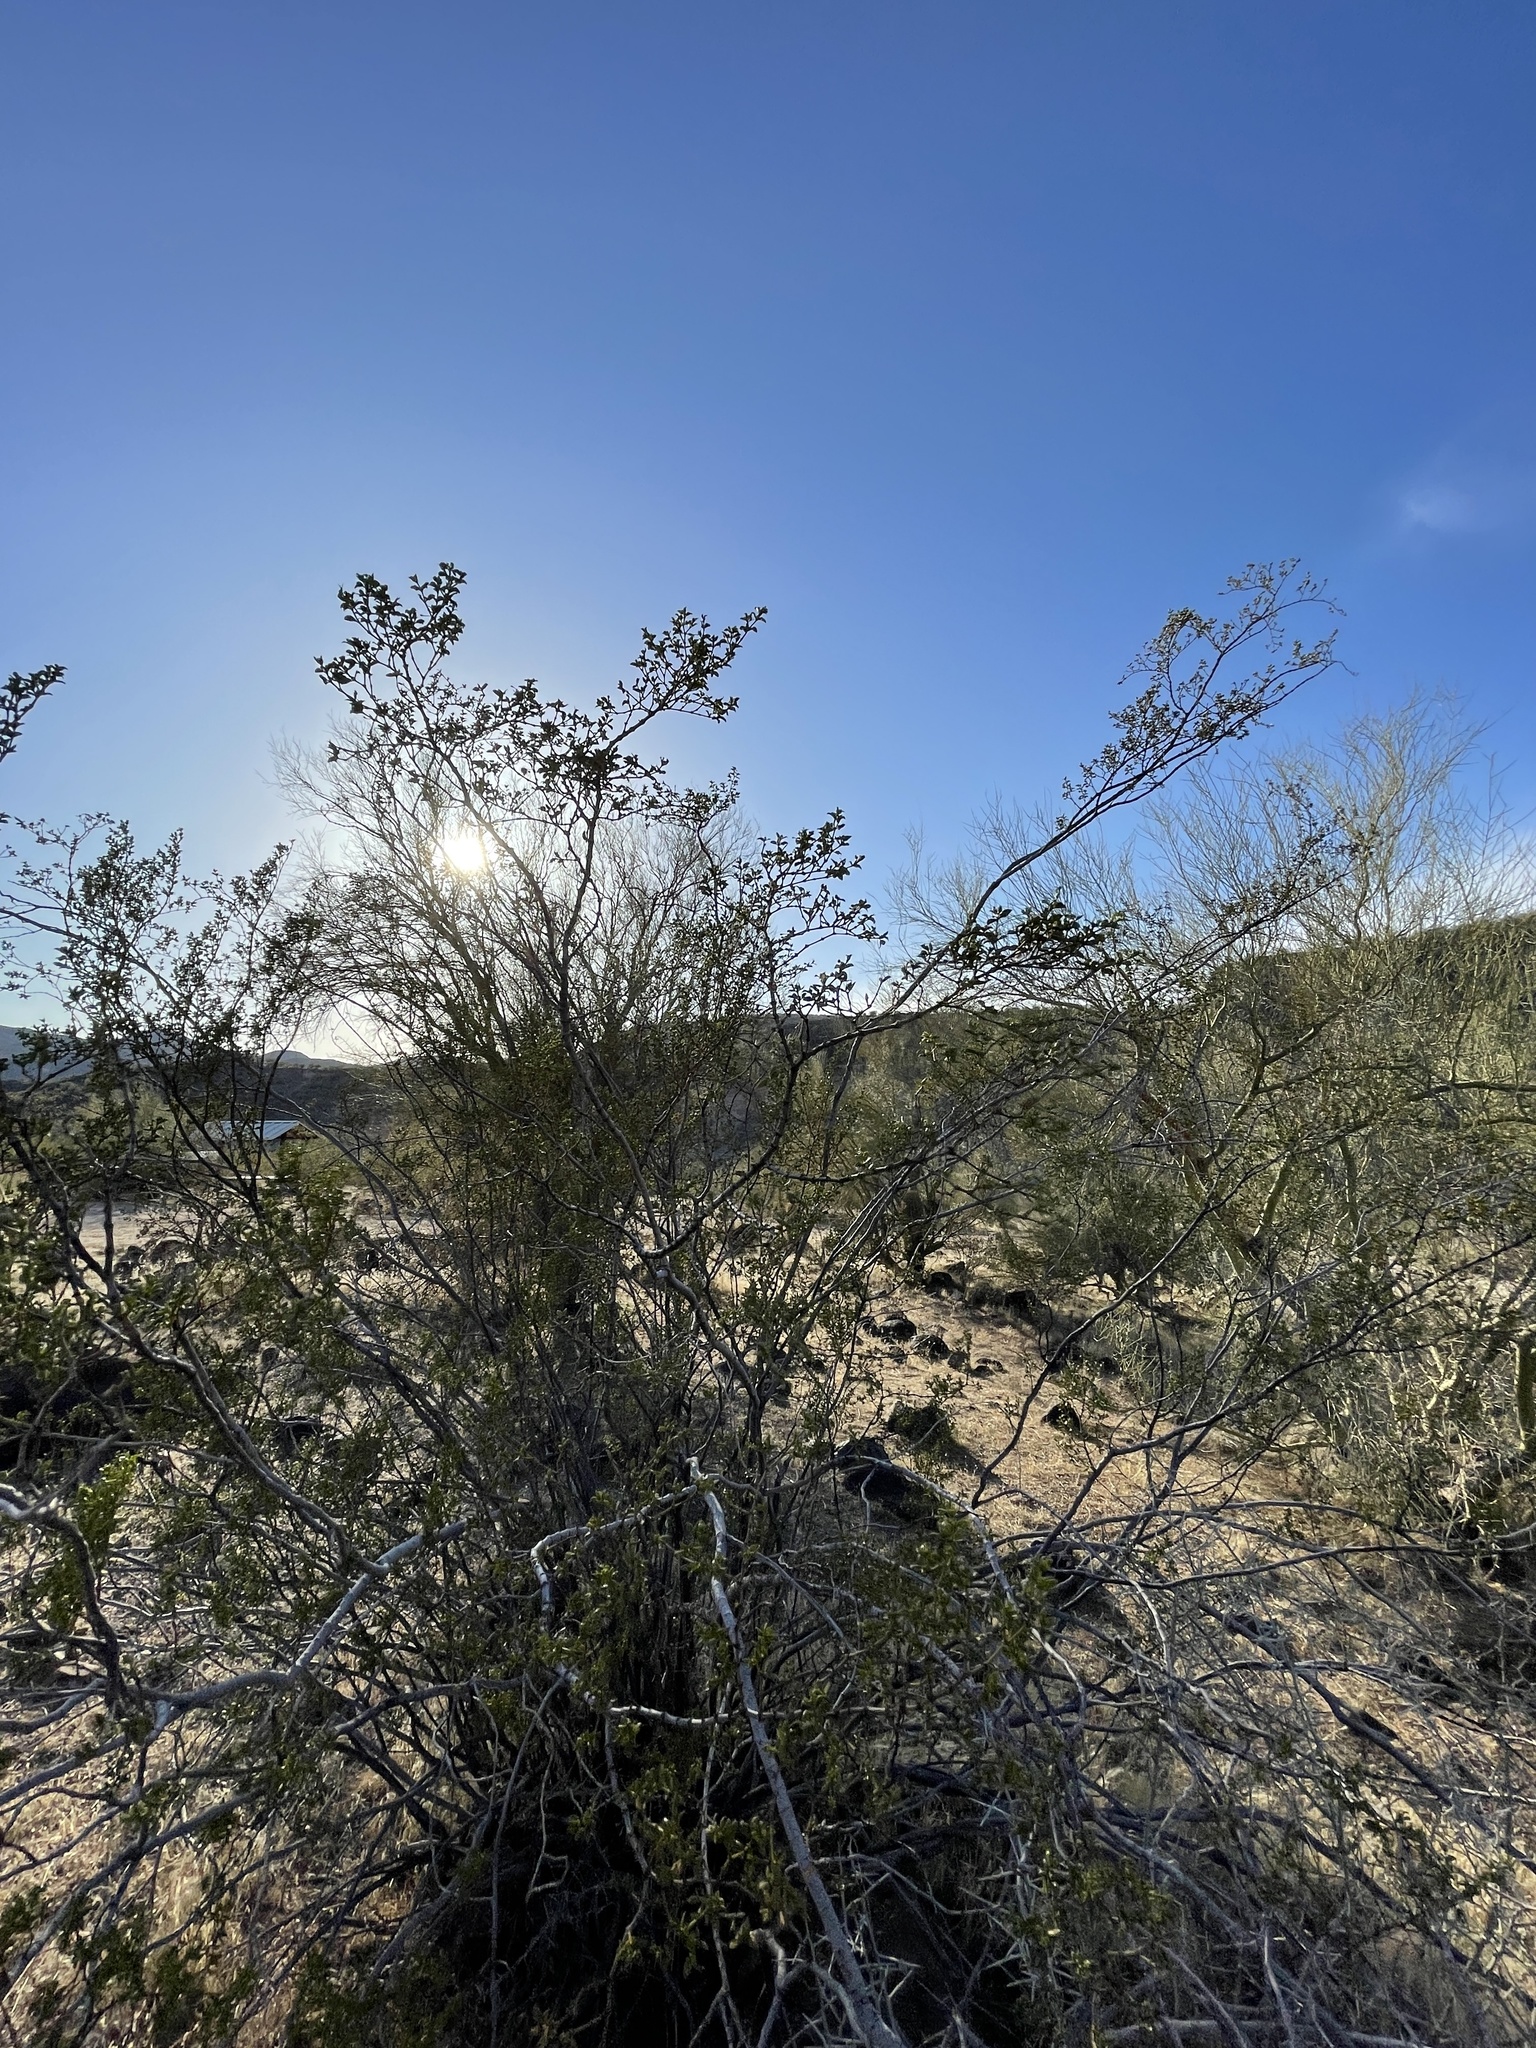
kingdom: Plantae
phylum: Tracheophyta
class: Magnoliopsida
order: Zygophyllales
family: Zygophyllaceae
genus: Larrea
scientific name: Larrea tridentata
